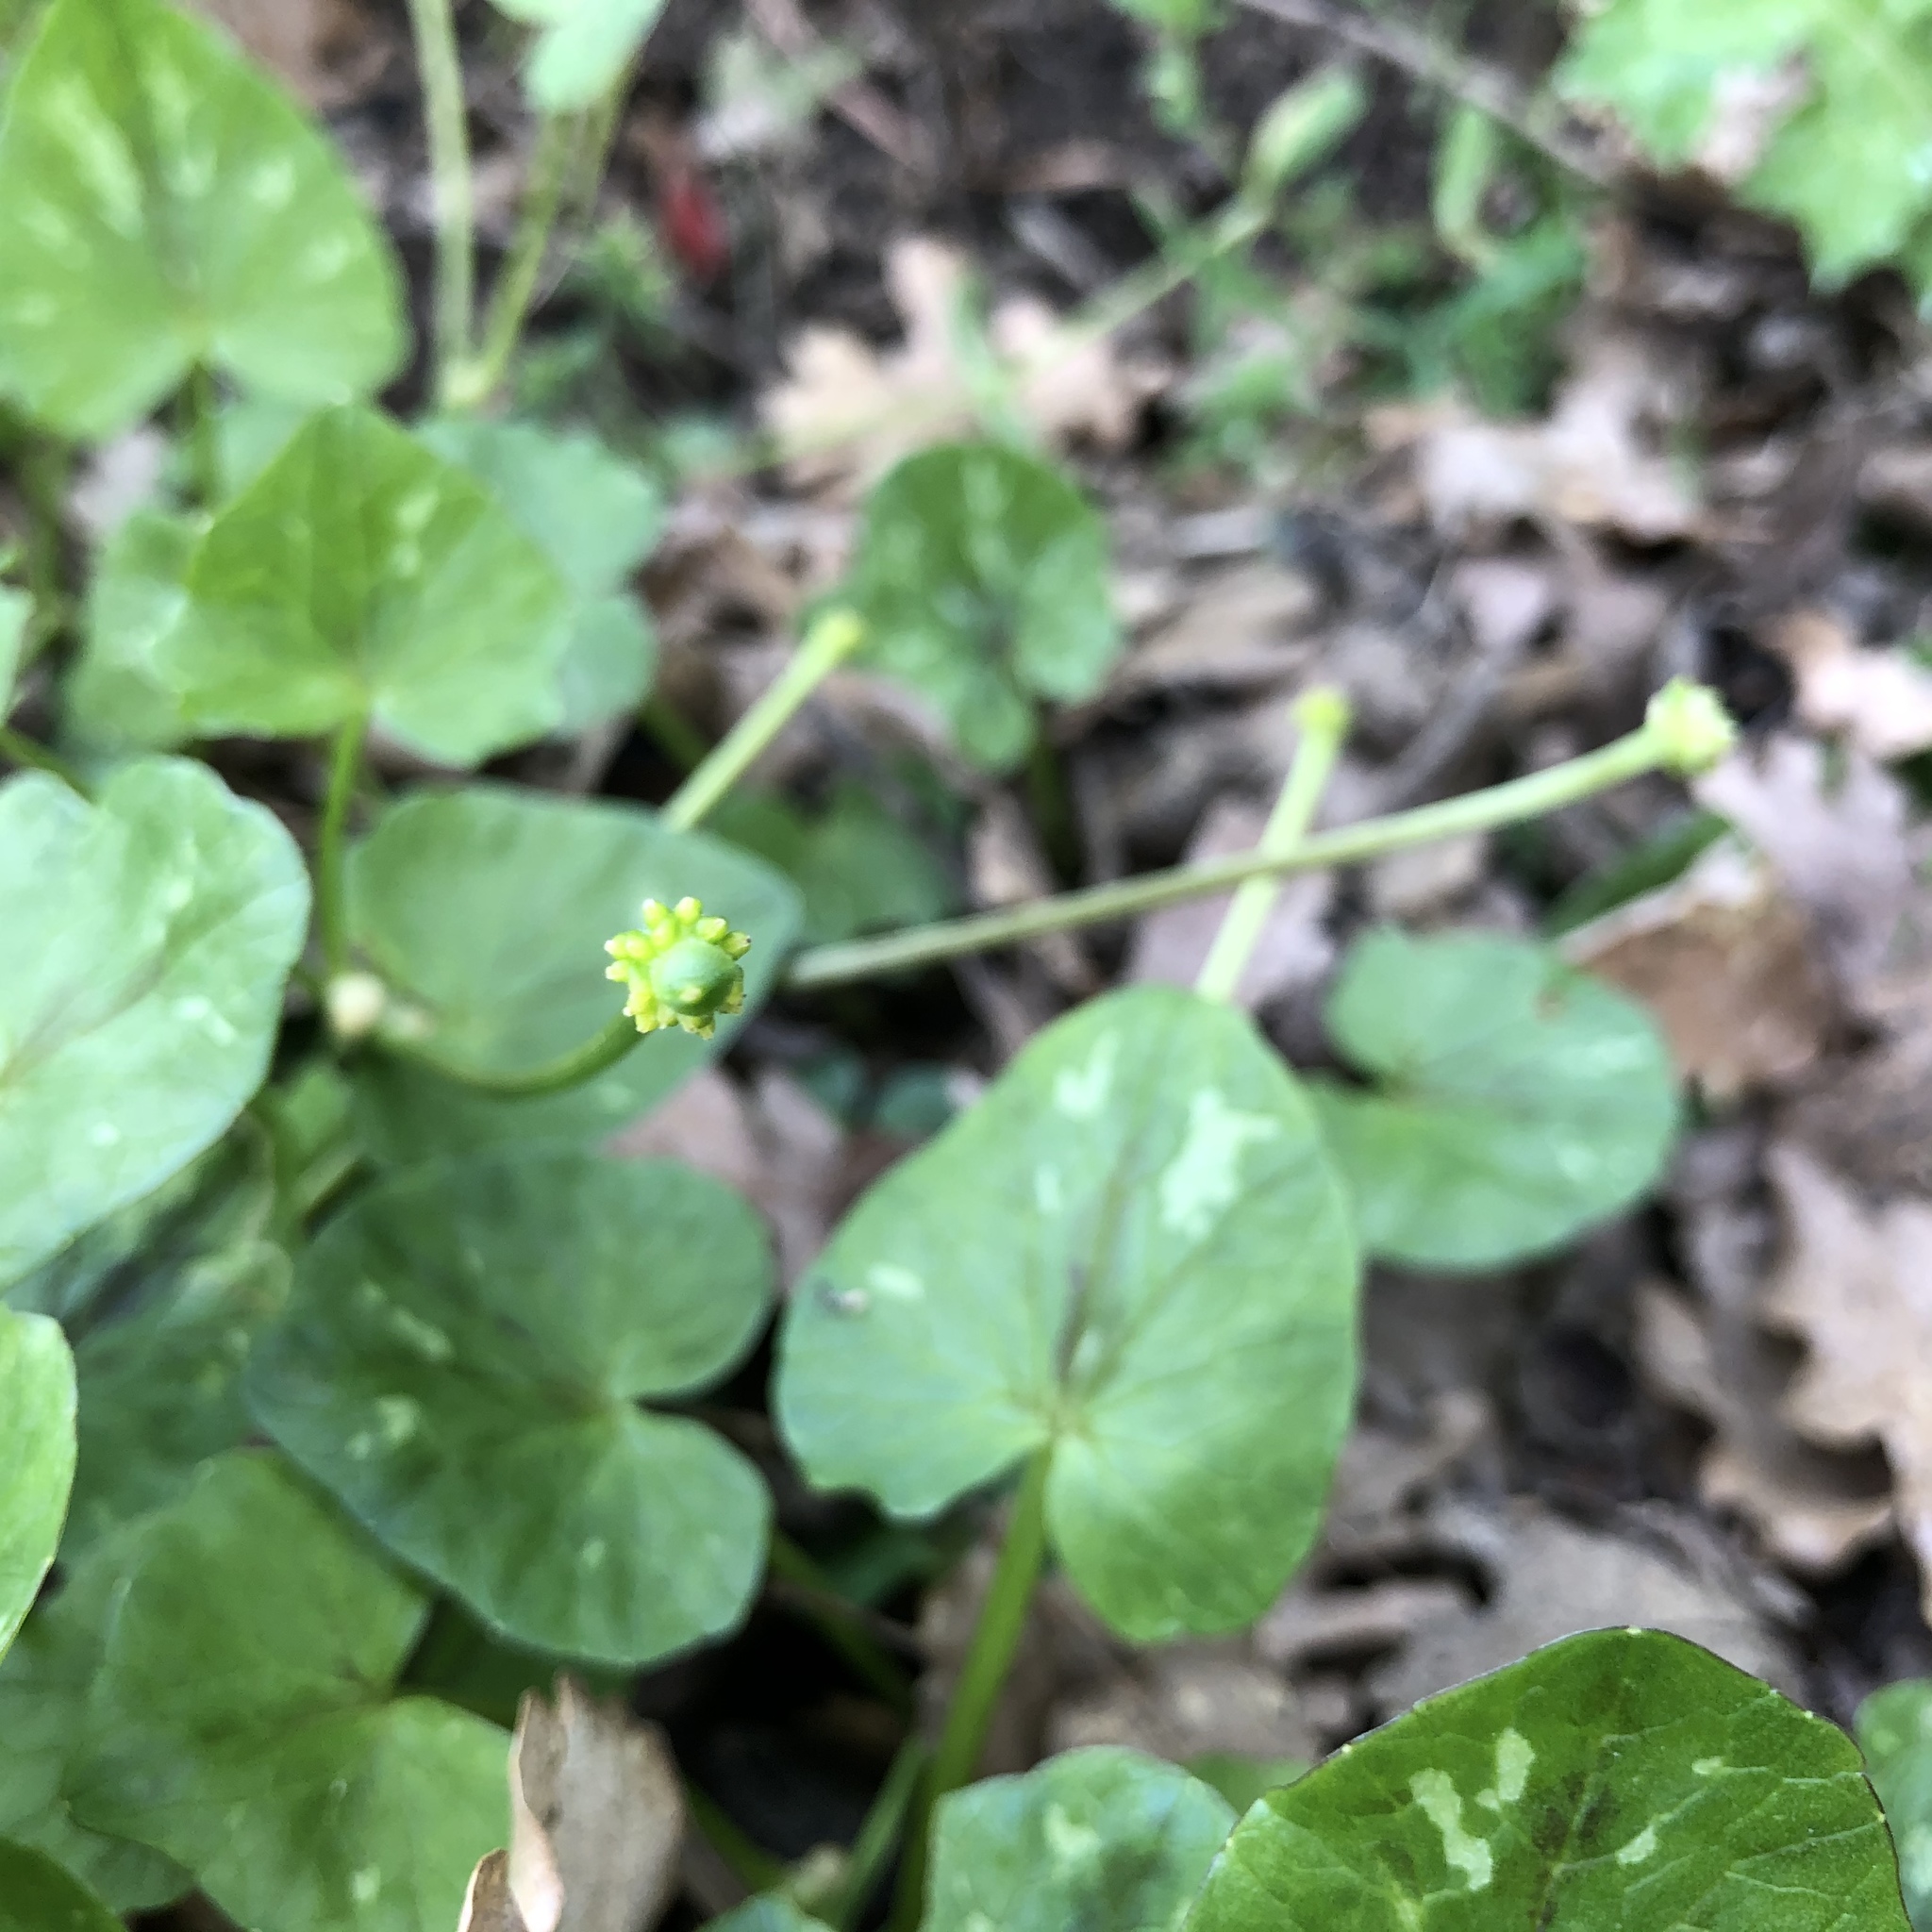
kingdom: Plantae
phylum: Tracheophyta
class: Magnoliopsida
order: Ranunculales
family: Ranunculaceae
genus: Ficaria
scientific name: Ficaria verna
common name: Lesser celandine
